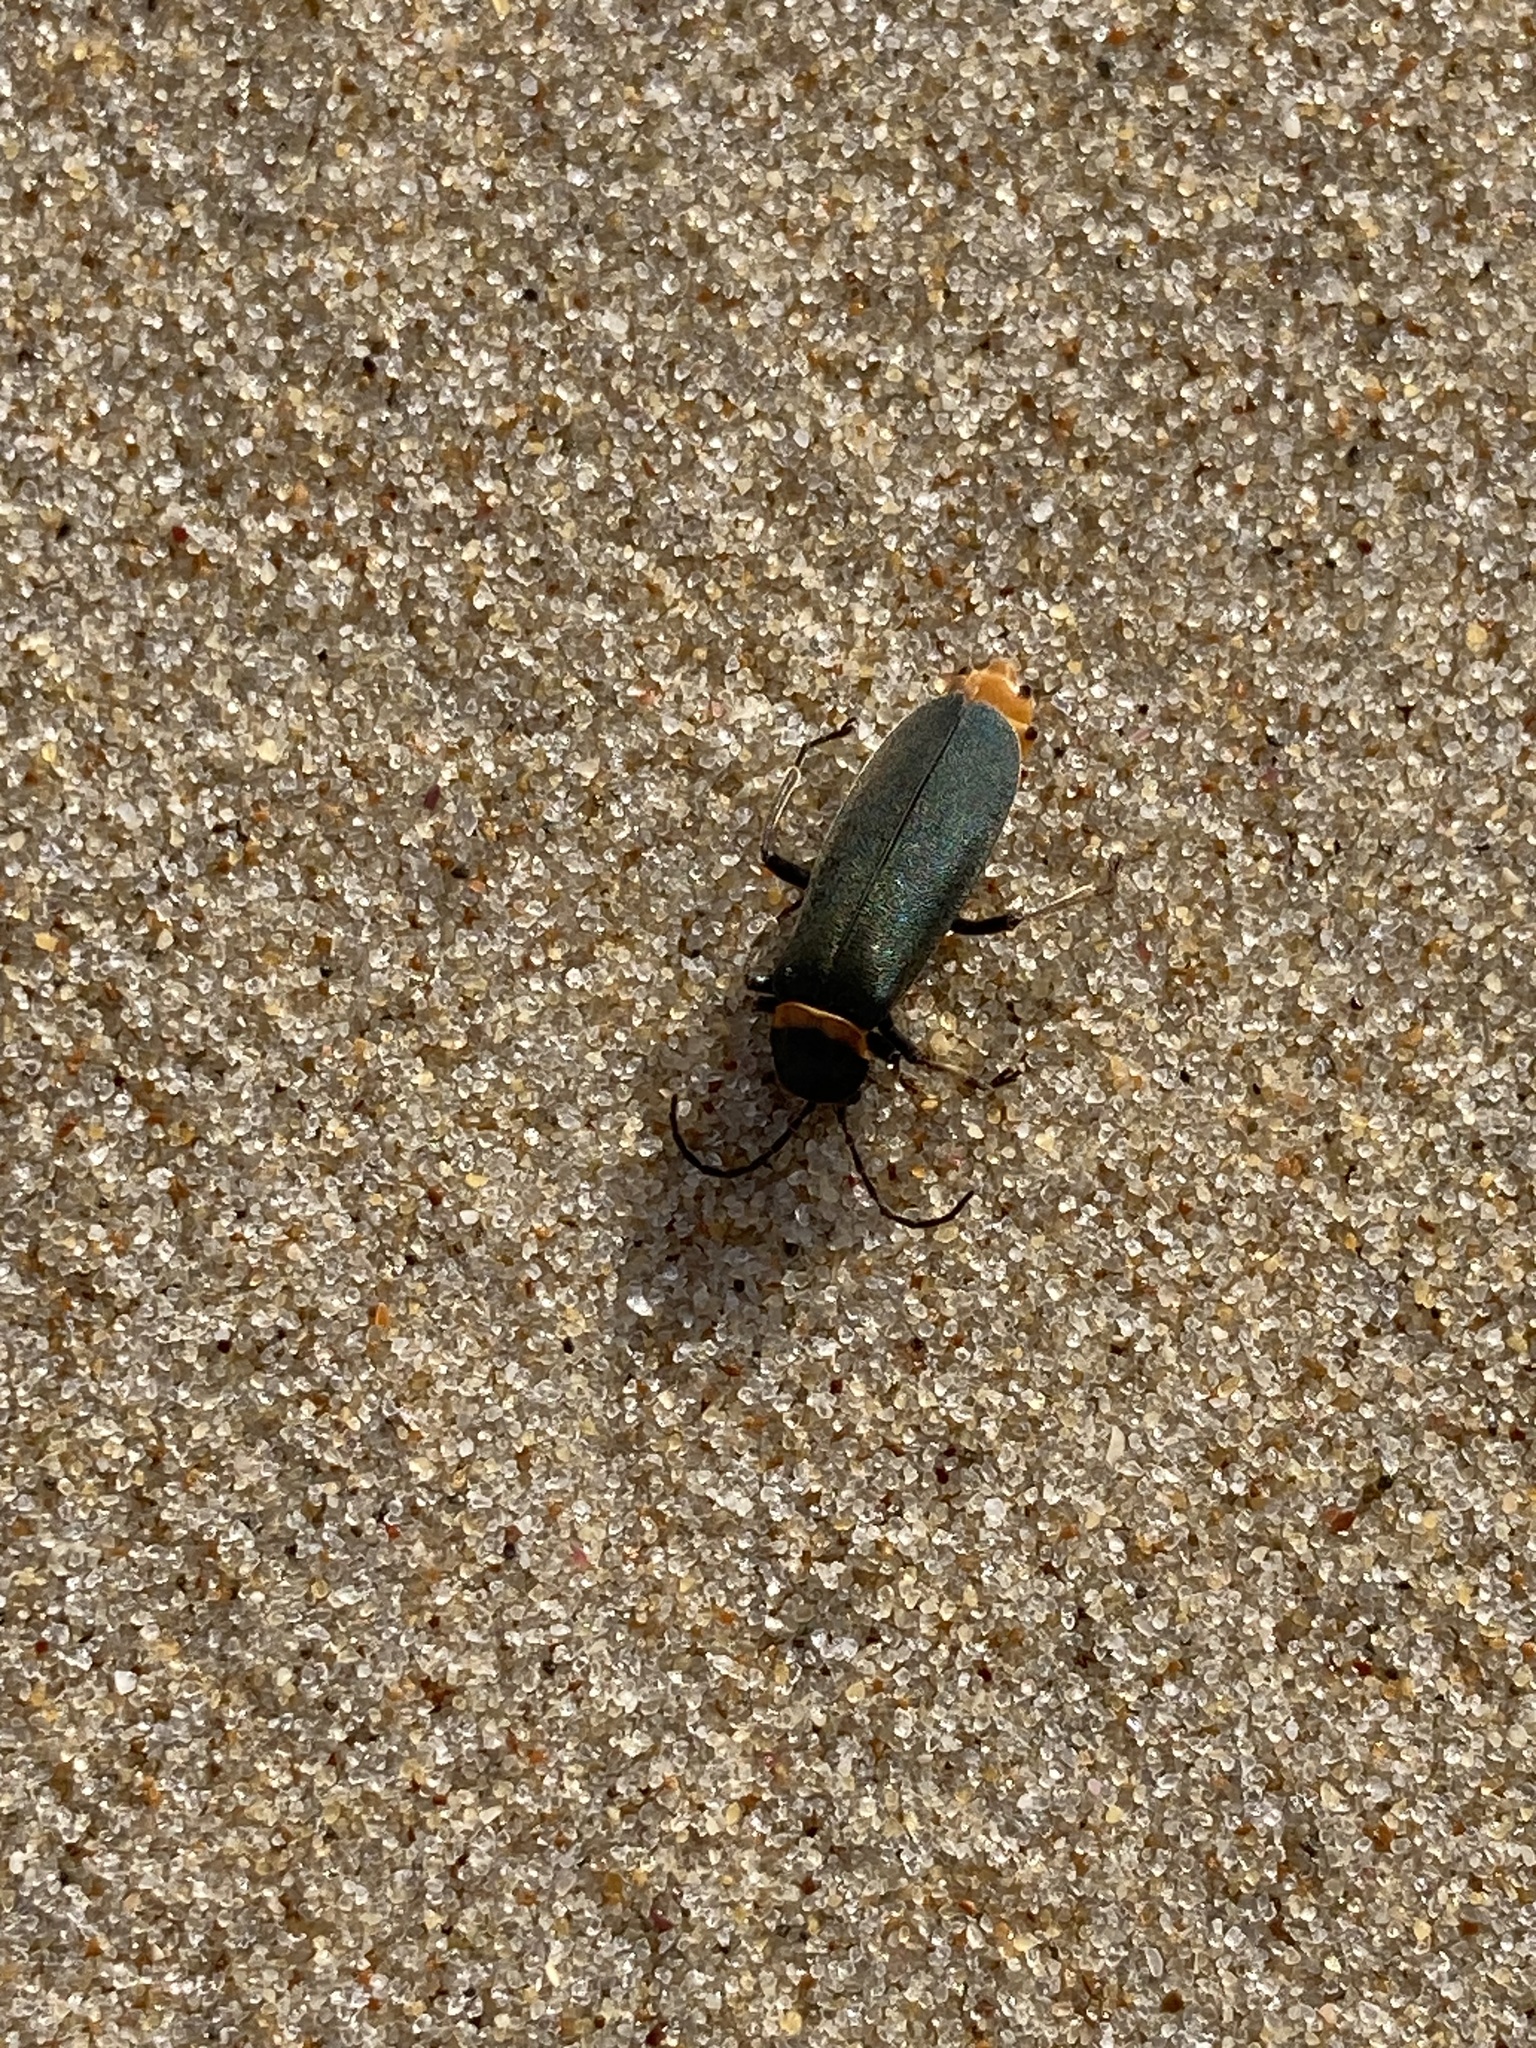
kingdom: Animalia
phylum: Arthropoda
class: Insecta
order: Coleoptera
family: Cantharidae
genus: Chauliognathus
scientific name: Chauliognathus
